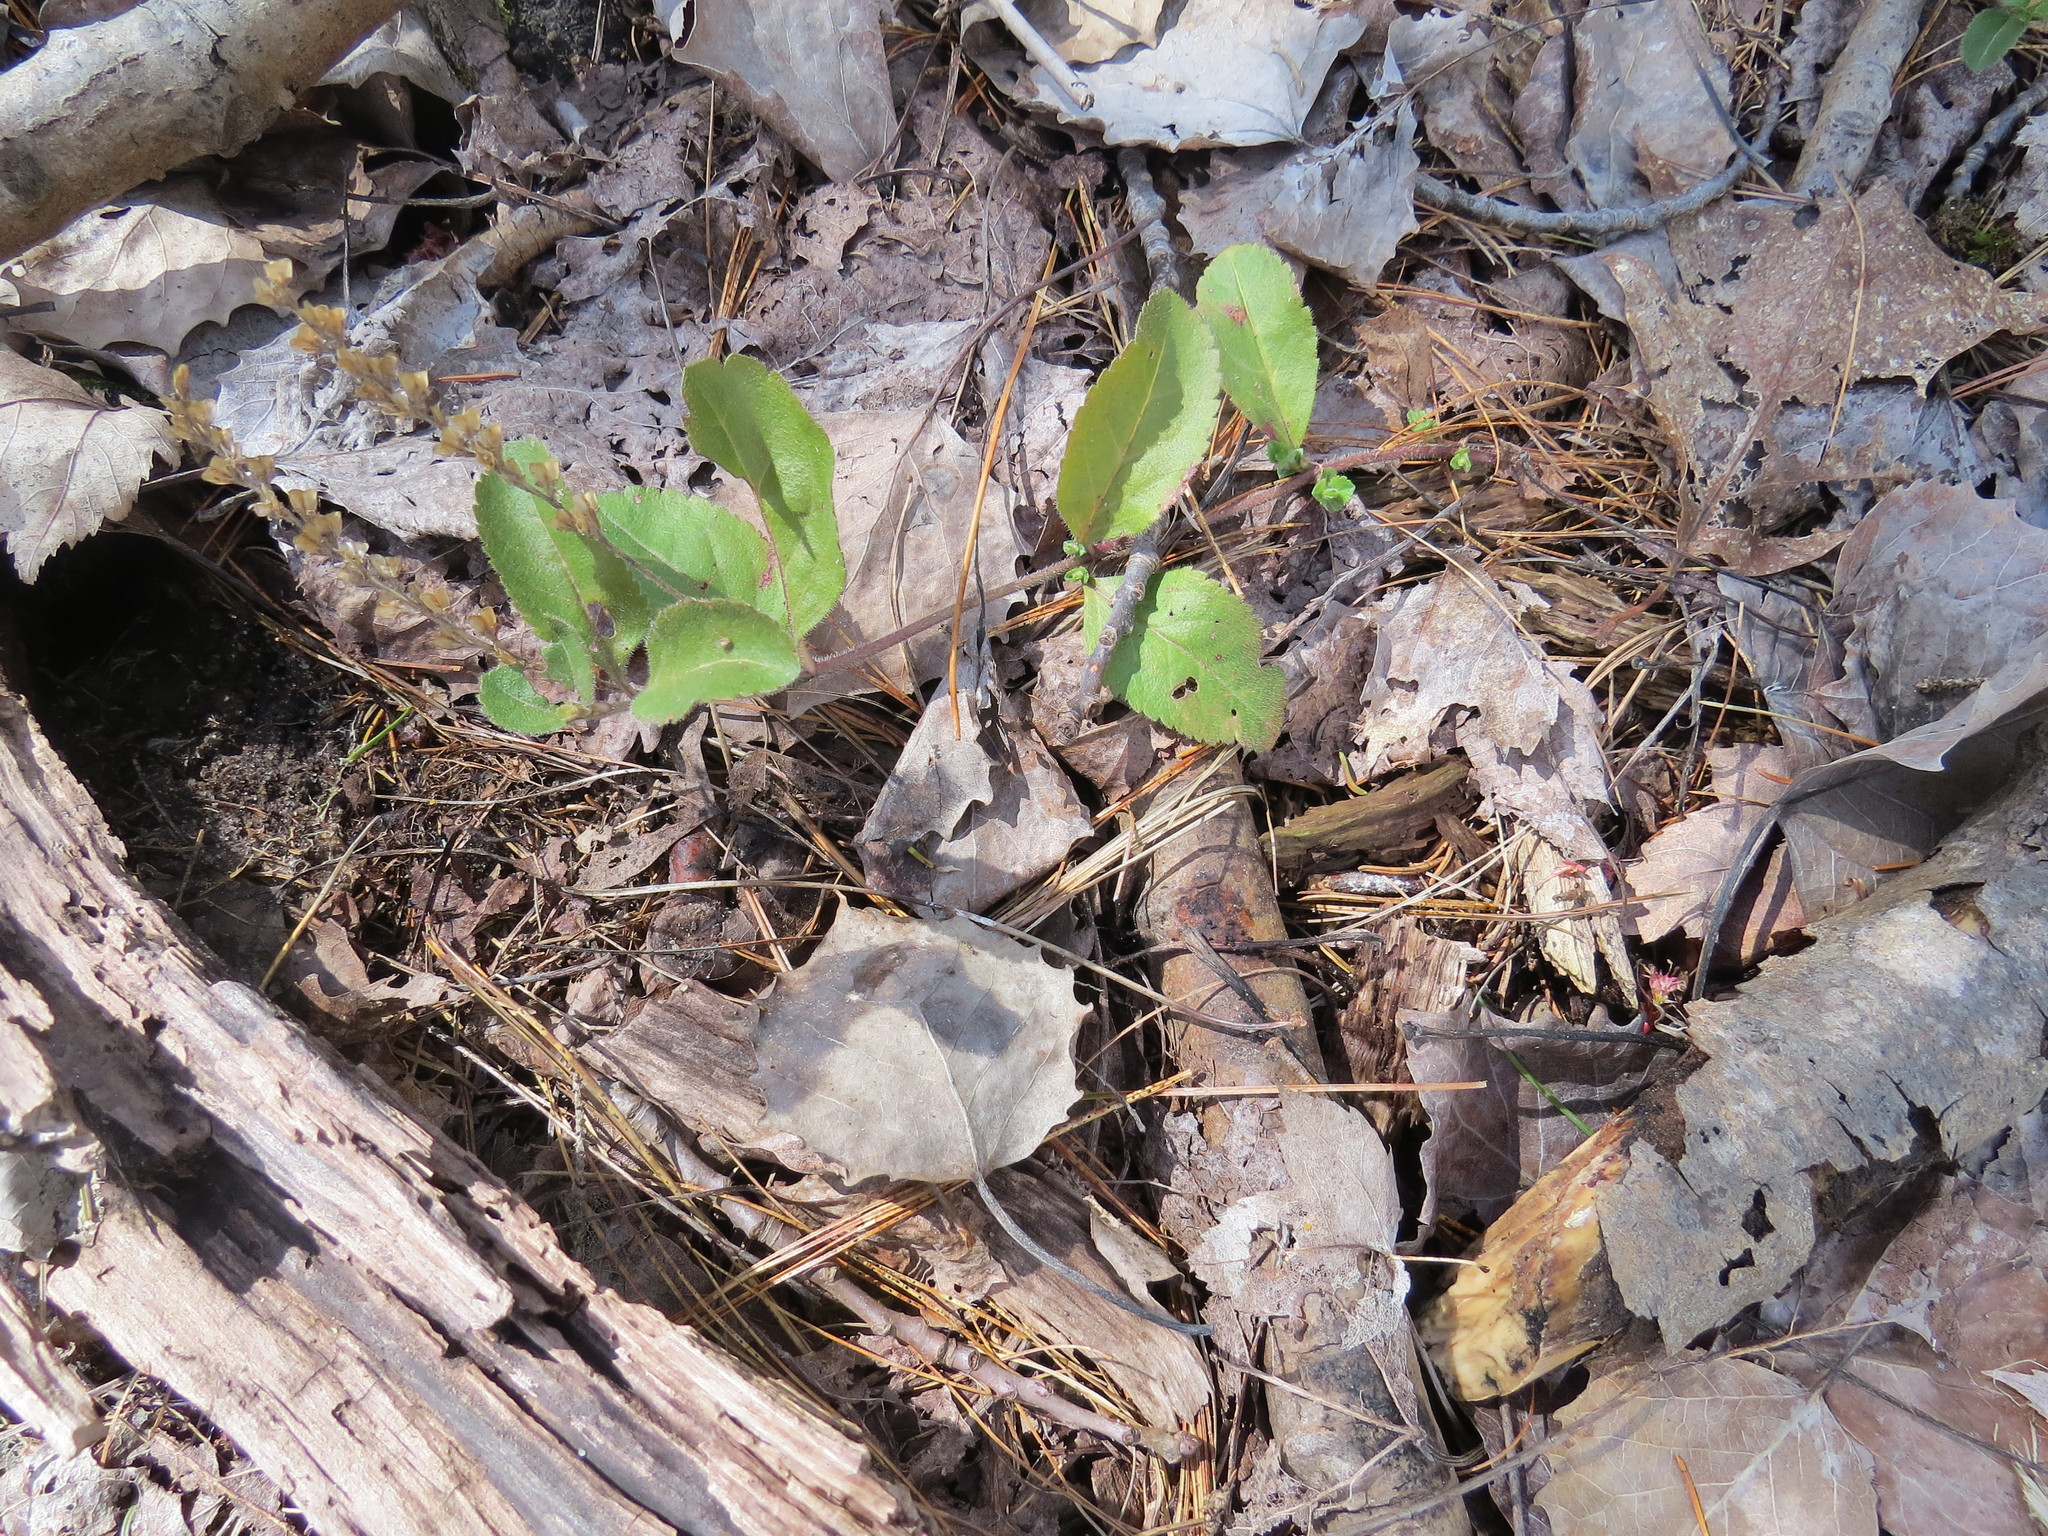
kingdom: Plantae
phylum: Tracheophyta
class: Magnoliopsida
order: Lamiales
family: Plantaginaceae
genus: Veronica
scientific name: Veronica officinalis
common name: Common speedwell
